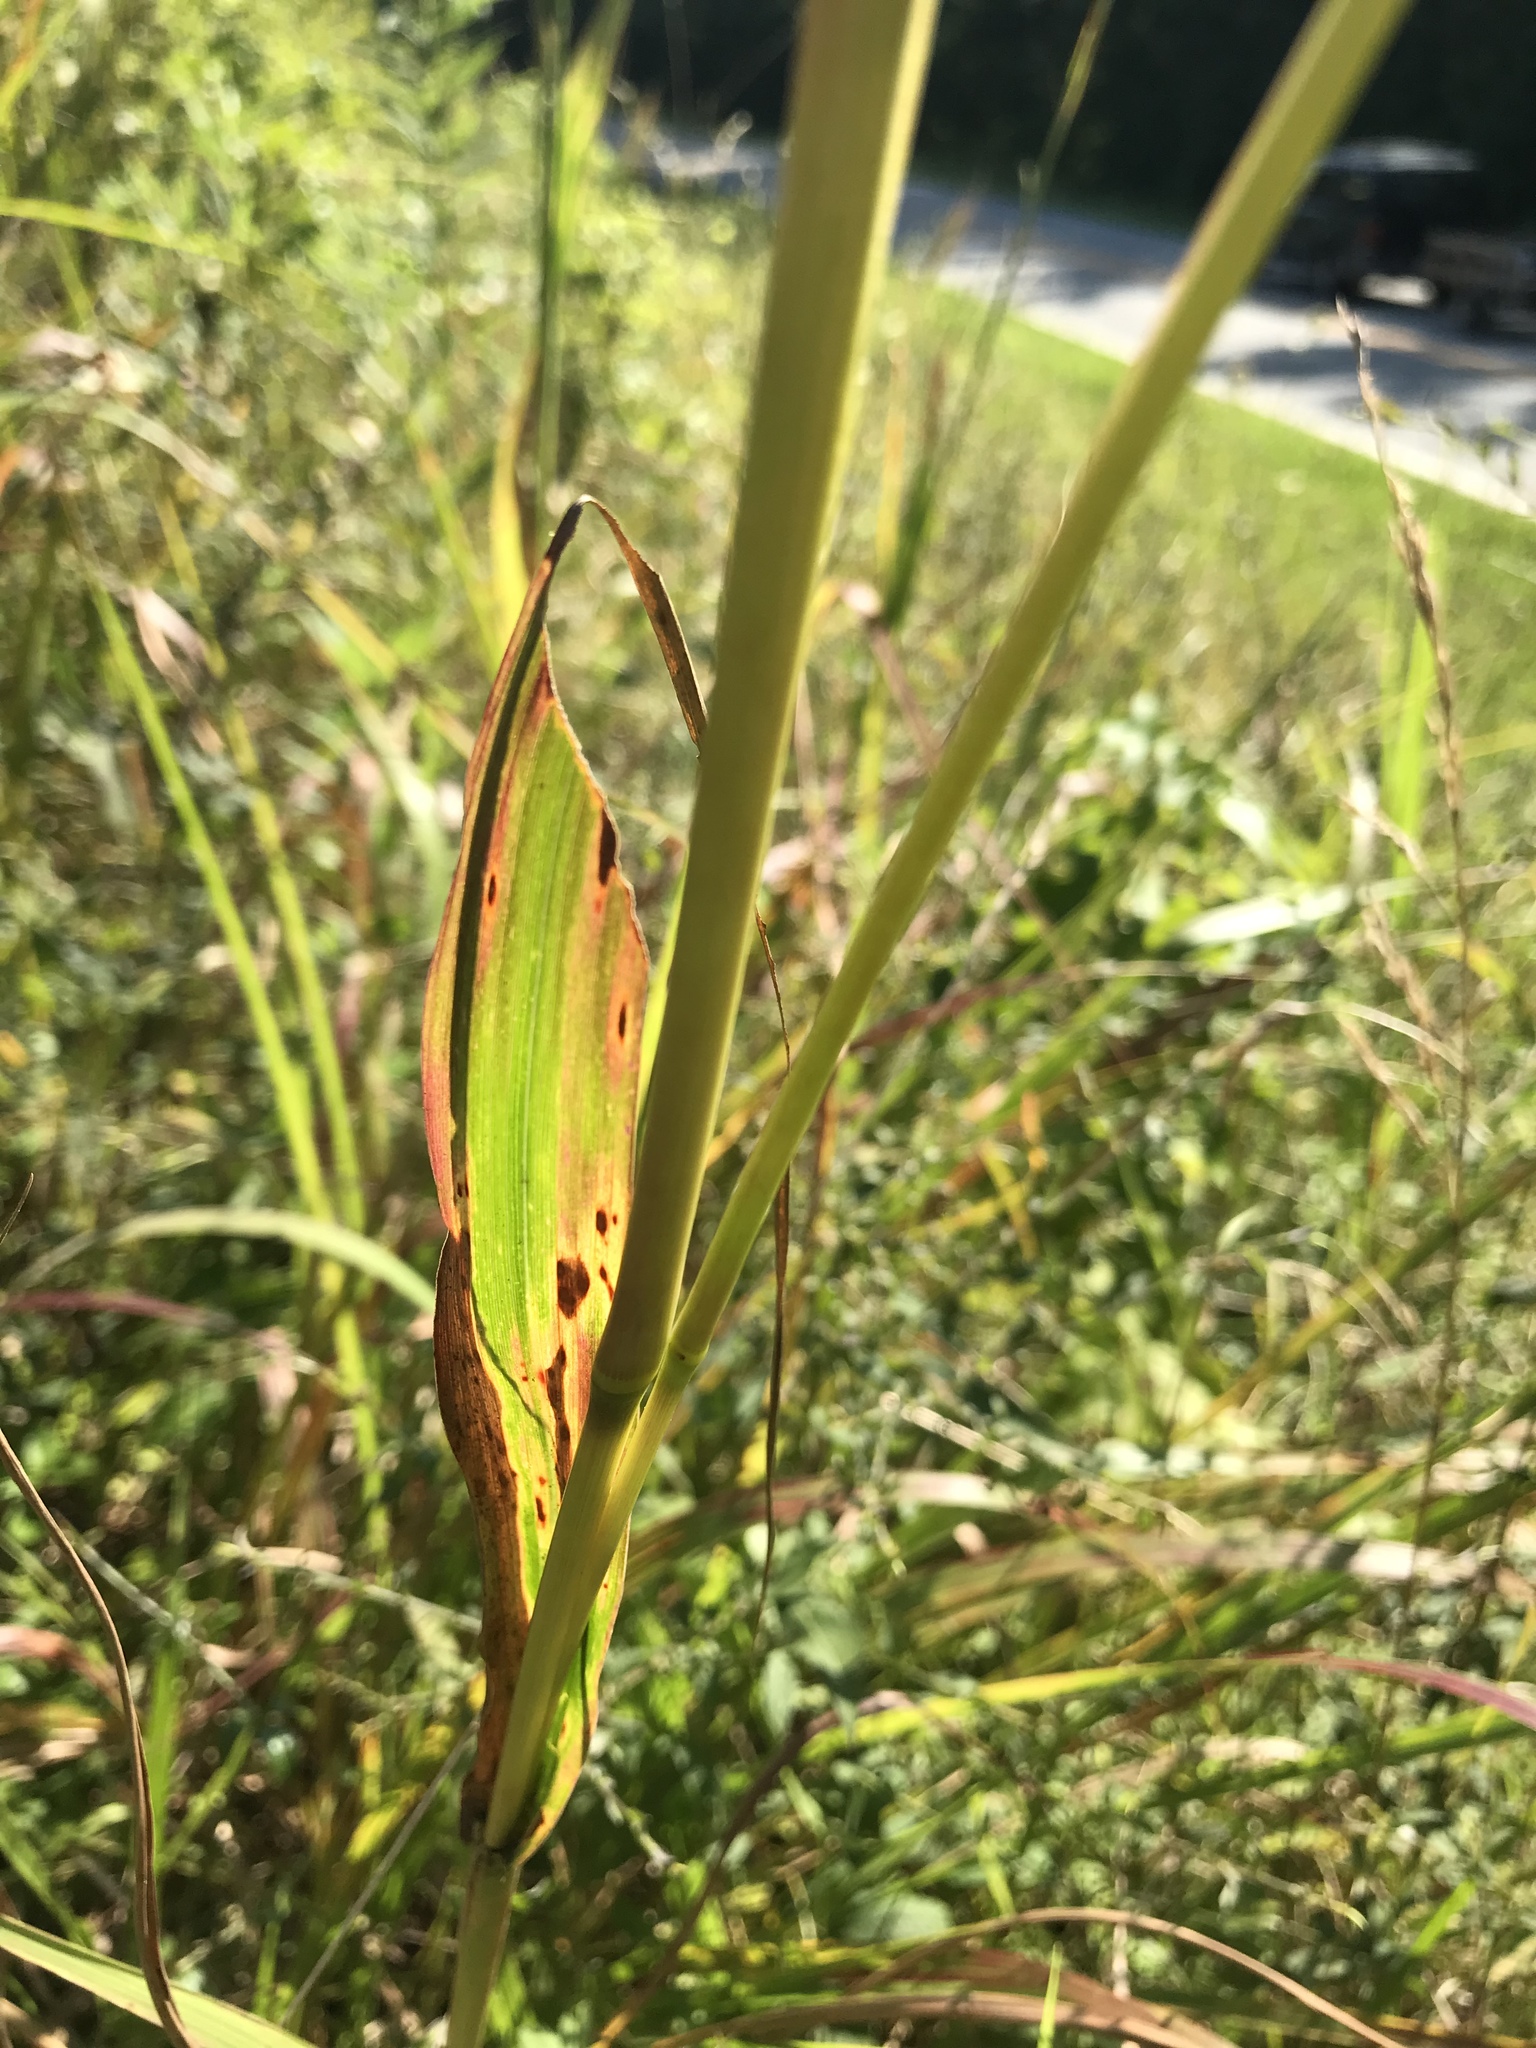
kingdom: Plantae
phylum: Tracheophyta
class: Liliopsida
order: Poales
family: Poaceae
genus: Tripsacum
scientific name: Tripsacum dactyloides
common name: Buffalo-grass
